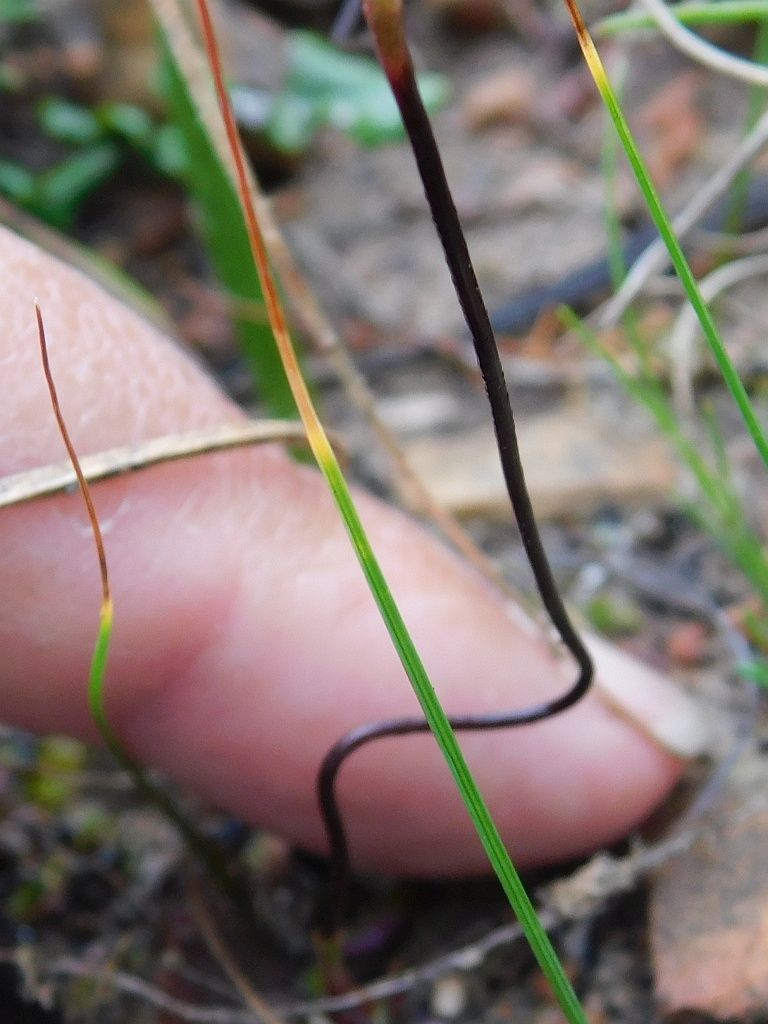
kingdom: Plantae
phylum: Tracheophyta
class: Liliopsida
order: Asparagales
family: Orchidaceae
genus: Disa
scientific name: Disa bifida
